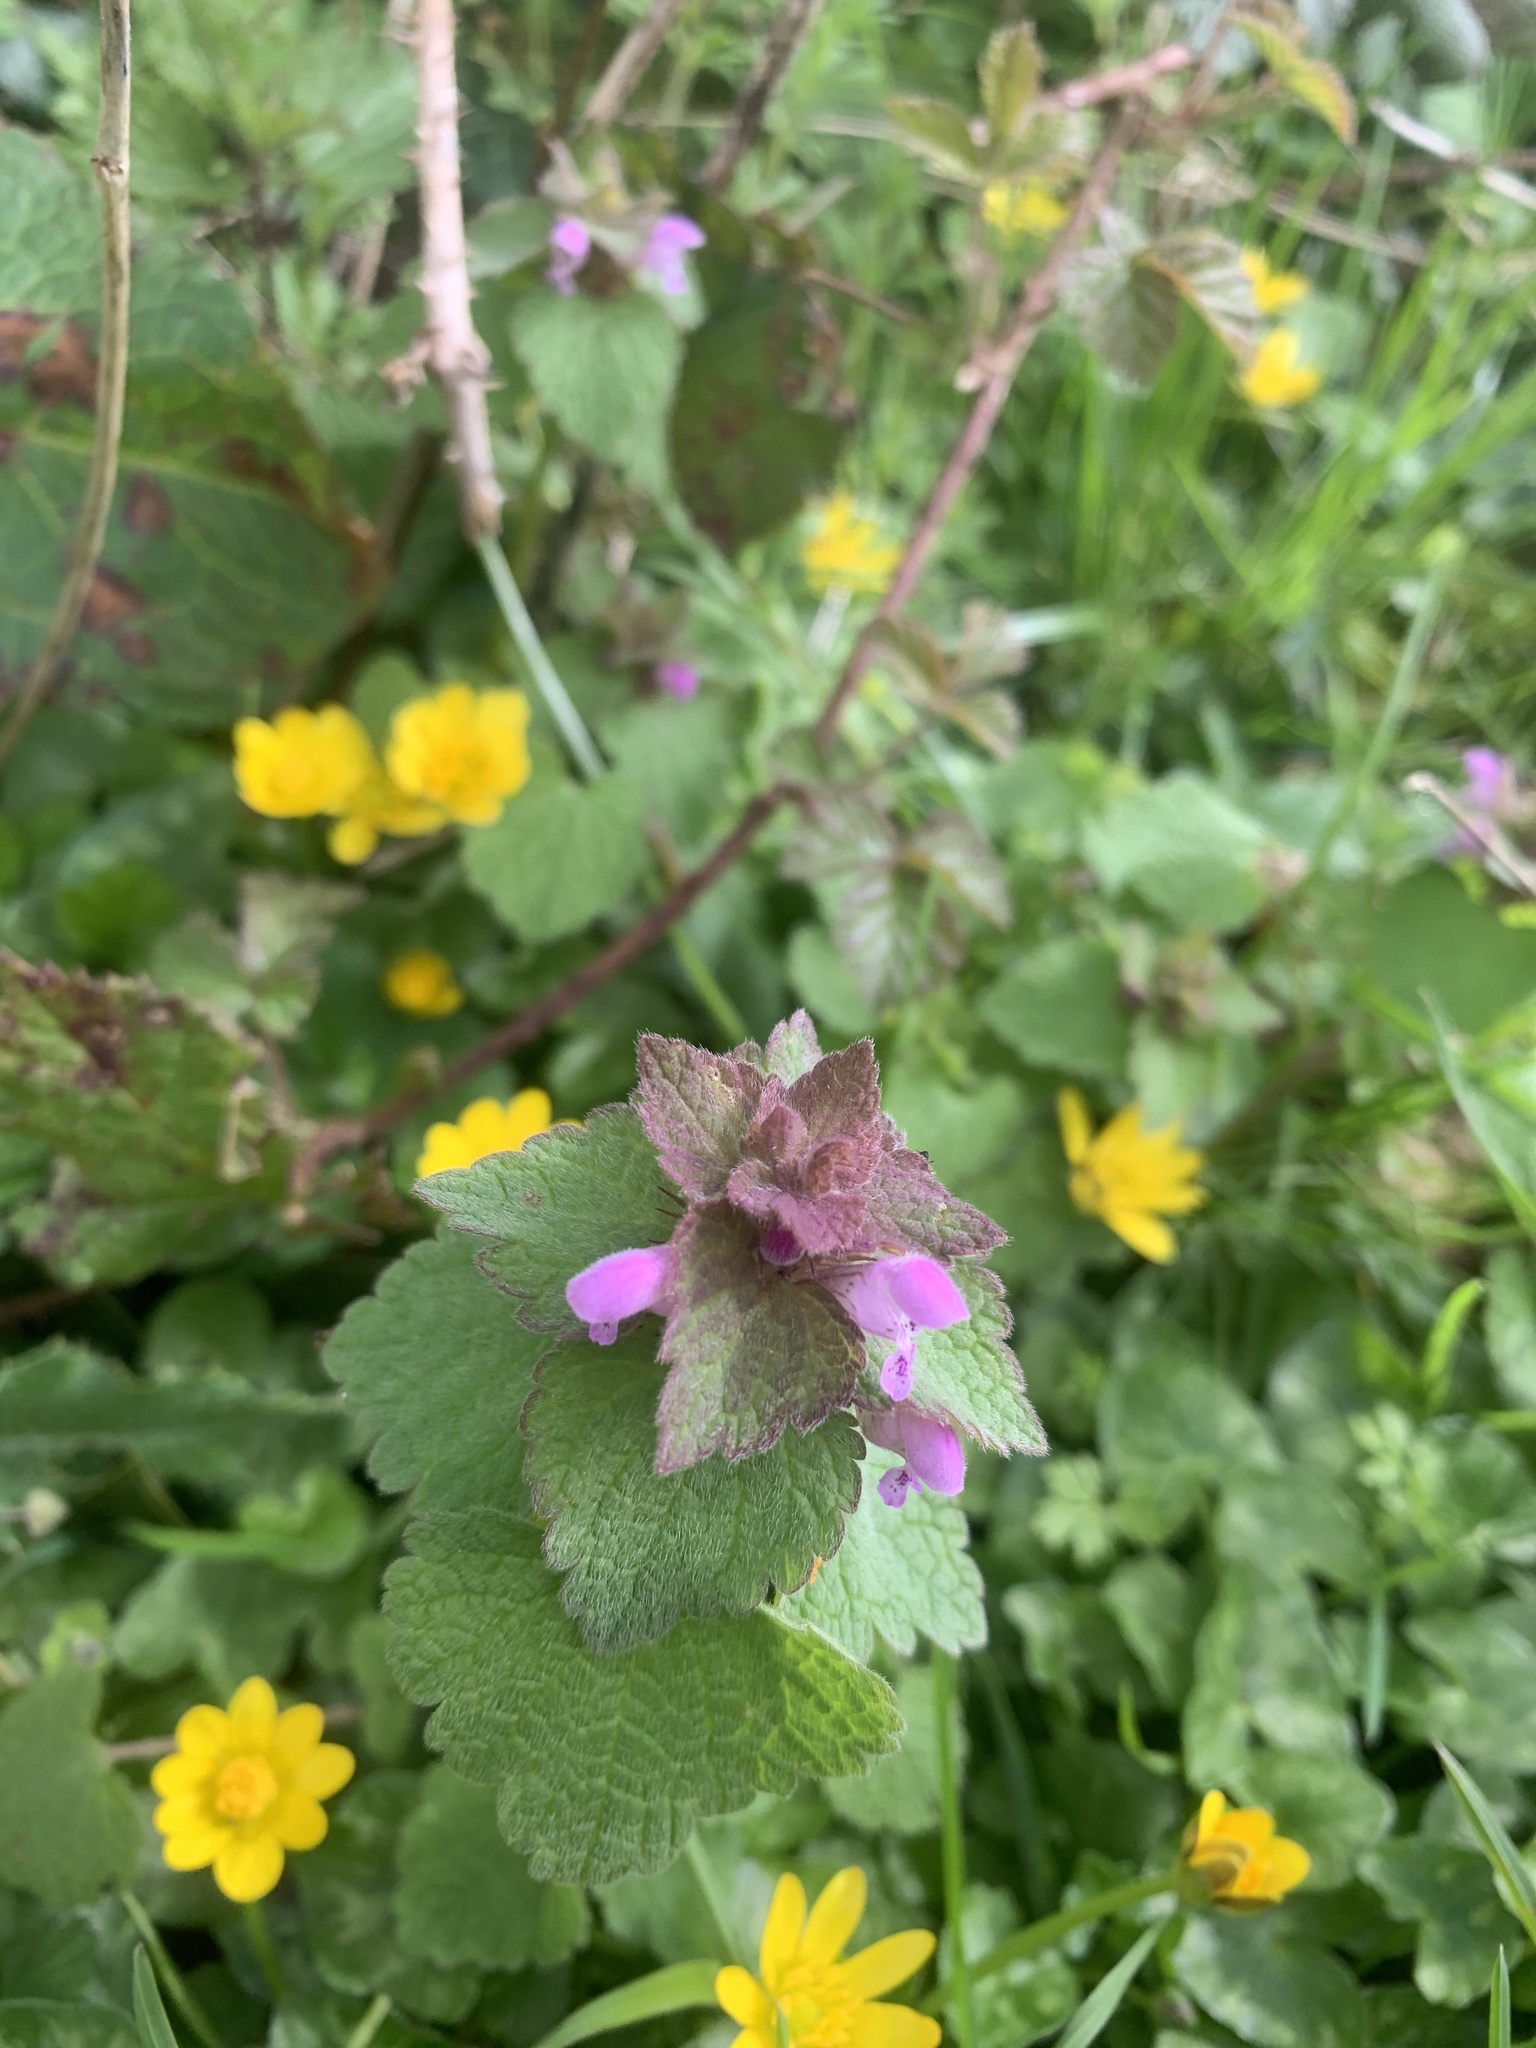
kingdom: Plantae
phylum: Tracheophyta
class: Magnoliopsida
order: Lamiales
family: Lamiaceae
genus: Lamium
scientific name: Lamium purpureum
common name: Red dead-nettle
